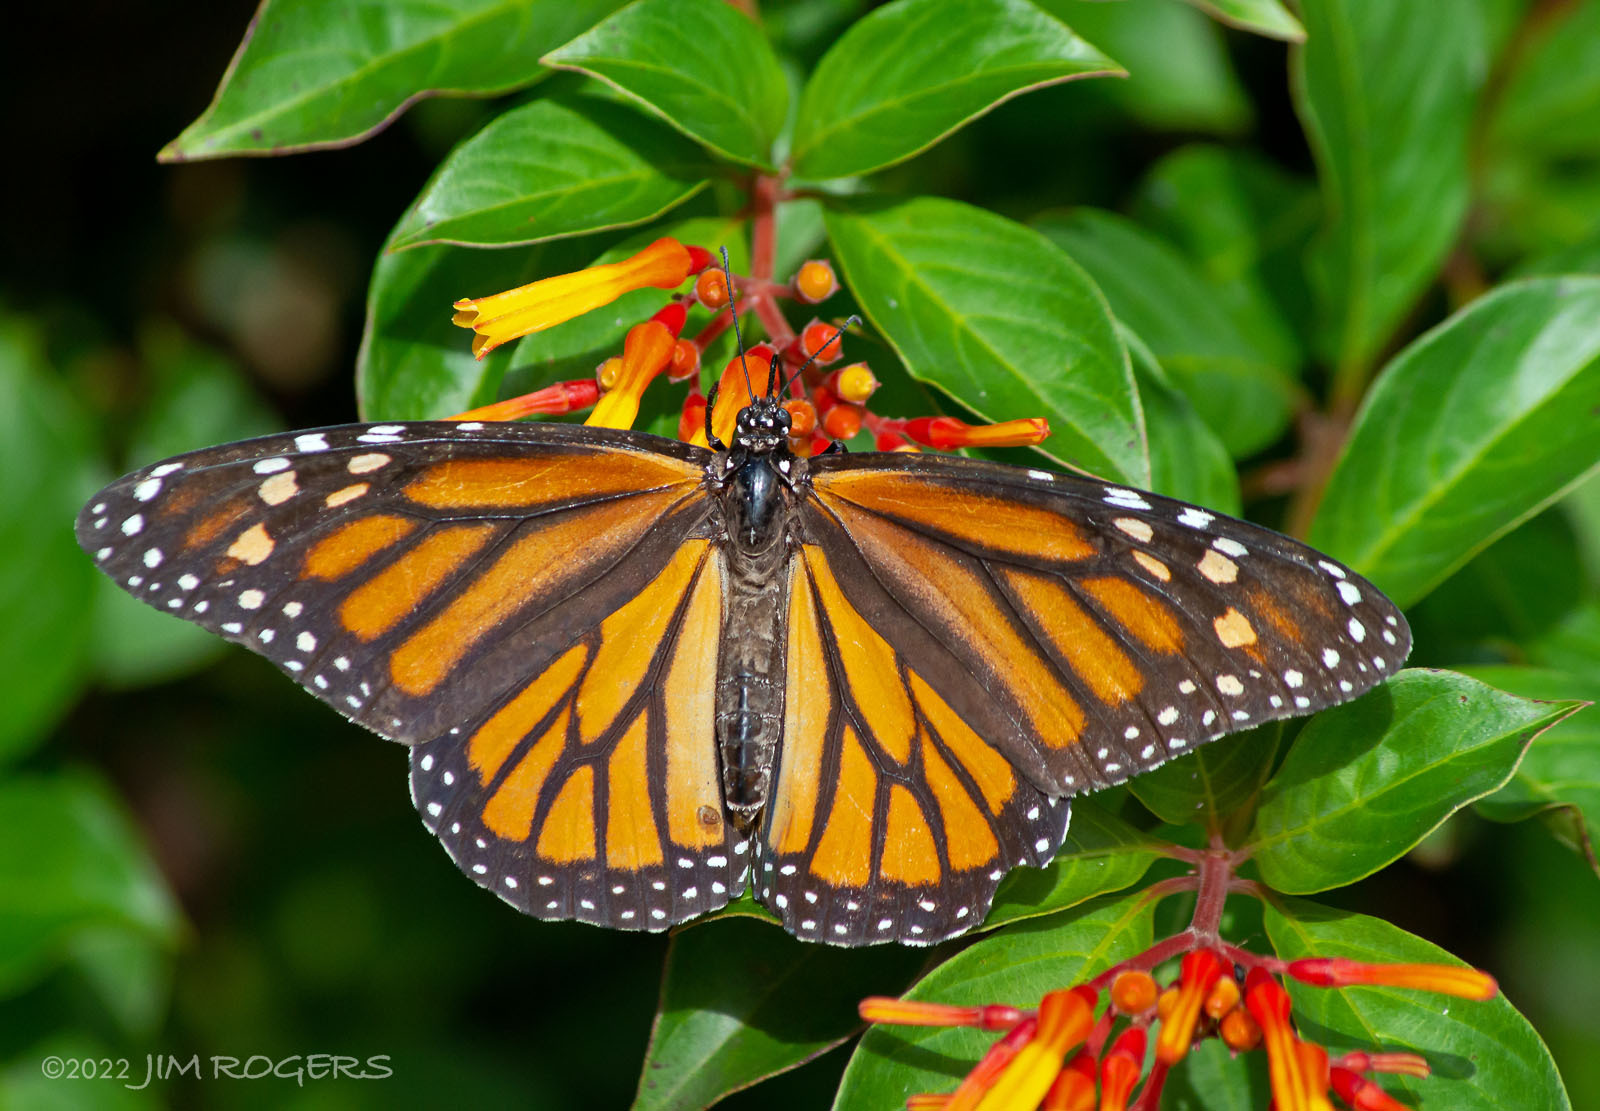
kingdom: Animalia
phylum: Arthropoda
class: Insecta
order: Lepidoptera
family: Nymphalidae
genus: Danaus
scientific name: Danaus plexippus
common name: Monarch
